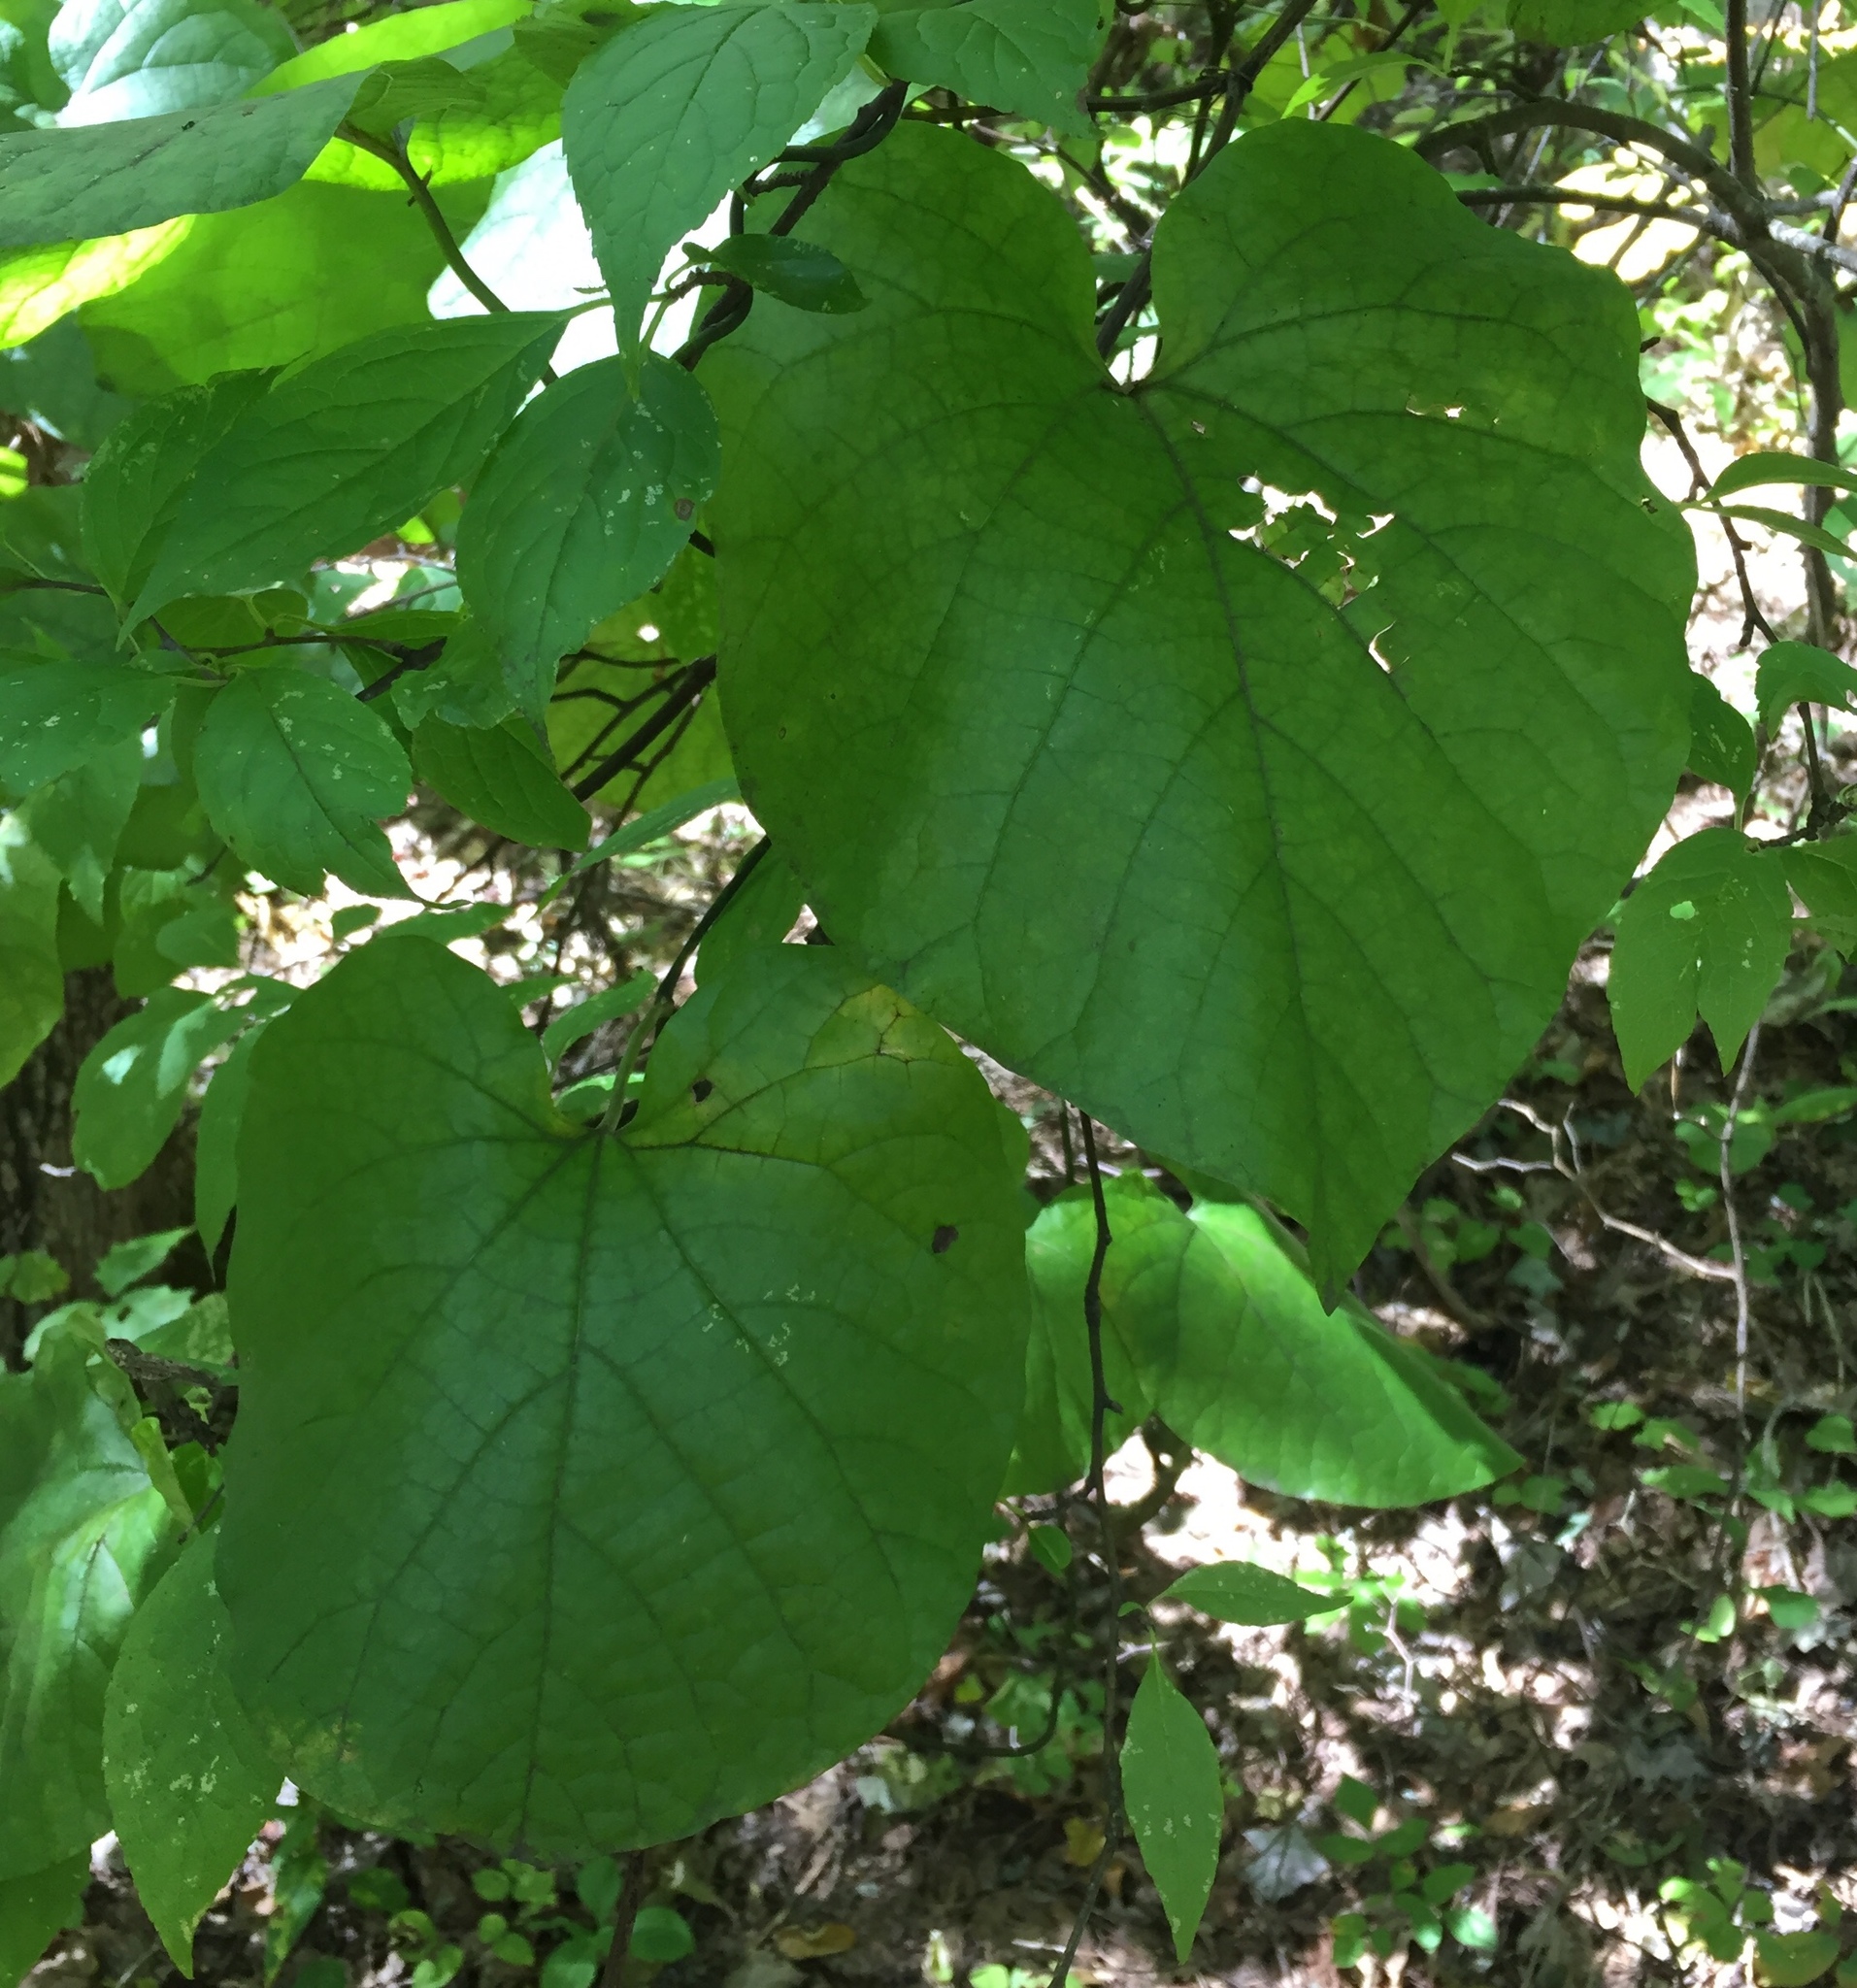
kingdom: Plantae
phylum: Tracheophyta
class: Magnoliopsida
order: Piperales
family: Aristolochiaceae
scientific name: Aristolochiaceae
